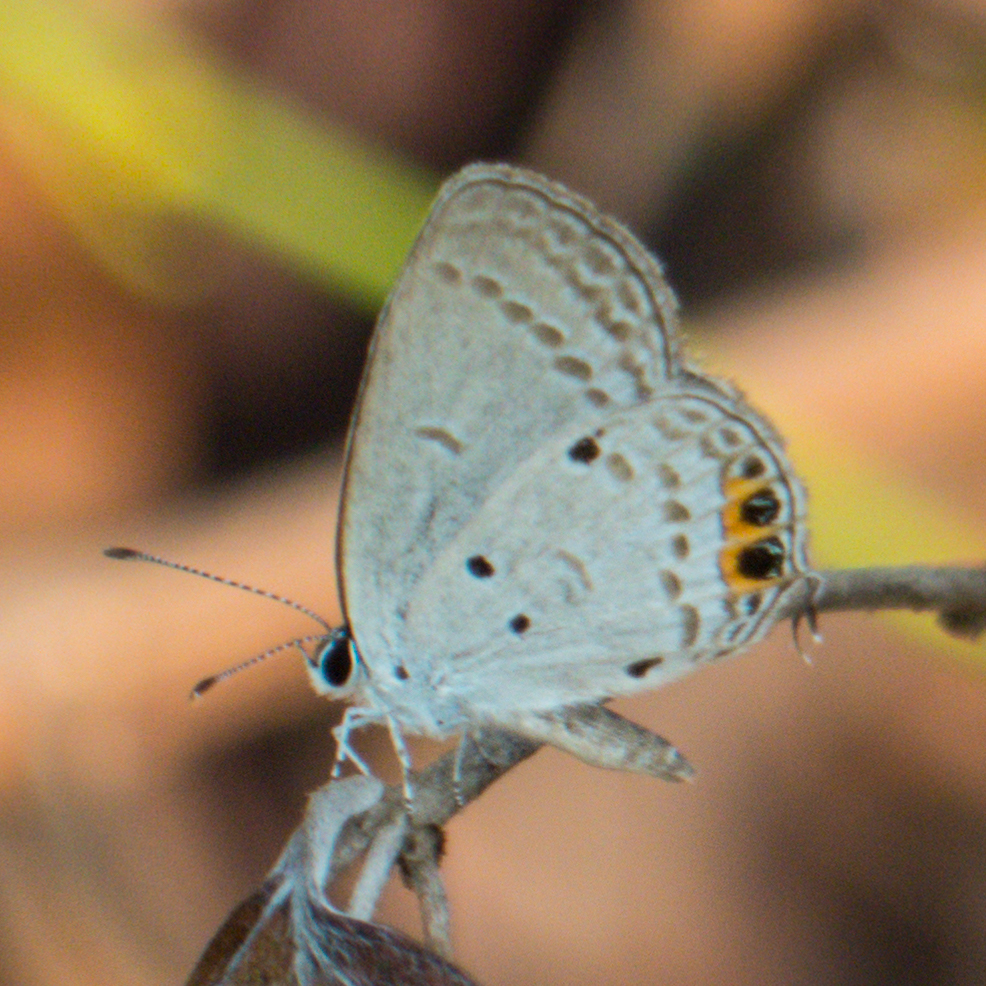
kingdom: Animalia
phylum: Arthropoda
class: Insecta
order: Lepidoptera
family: Lycaenidae
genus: Everes
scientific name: Everes lacturnus
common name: Orange-tipped pea-blue
